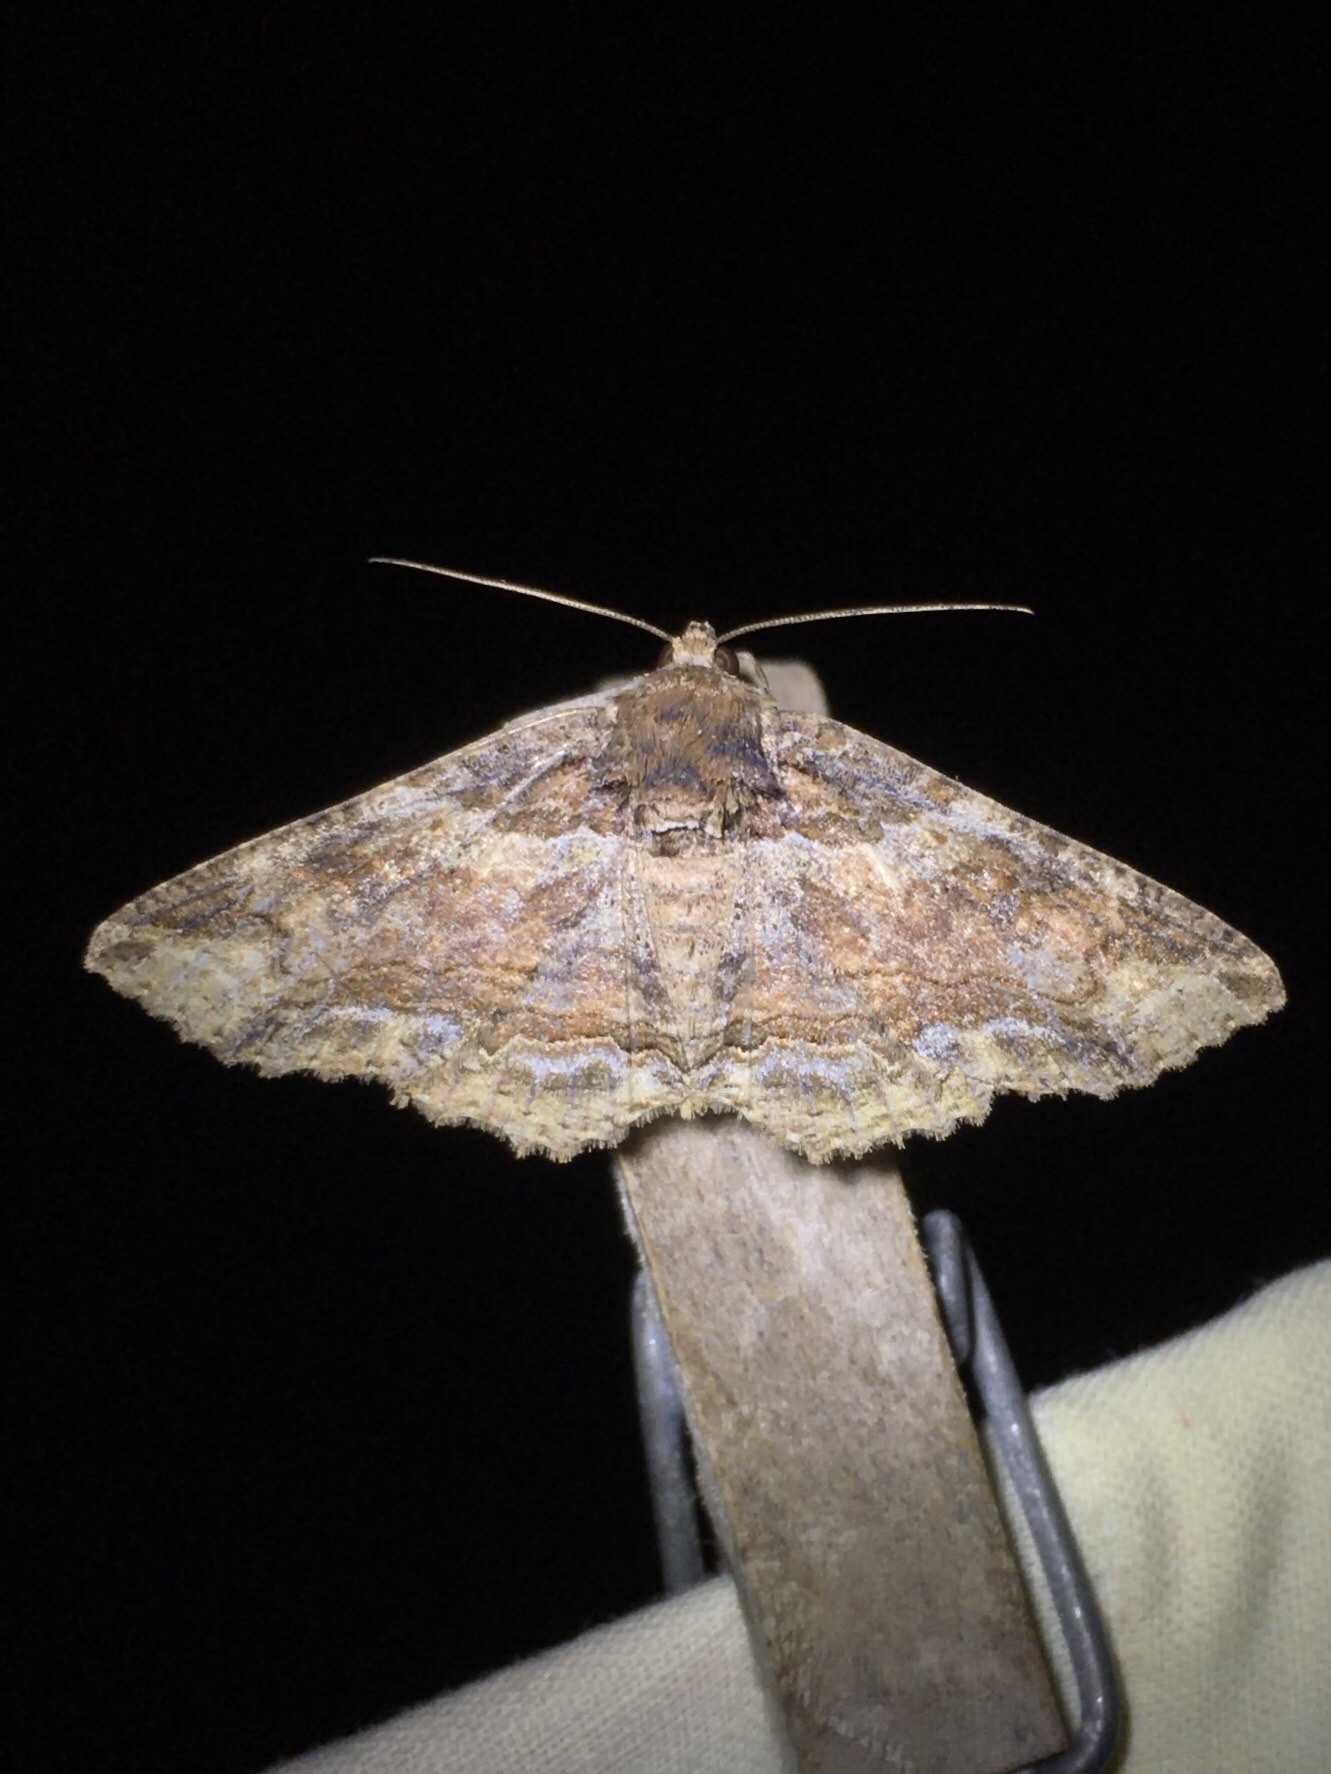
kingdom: Animalia
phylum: Arthropoda
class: Insecta
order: Lepidoptera
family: Erebidae
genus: Zale
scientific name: Zale minerea
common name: Colorful zale moth
